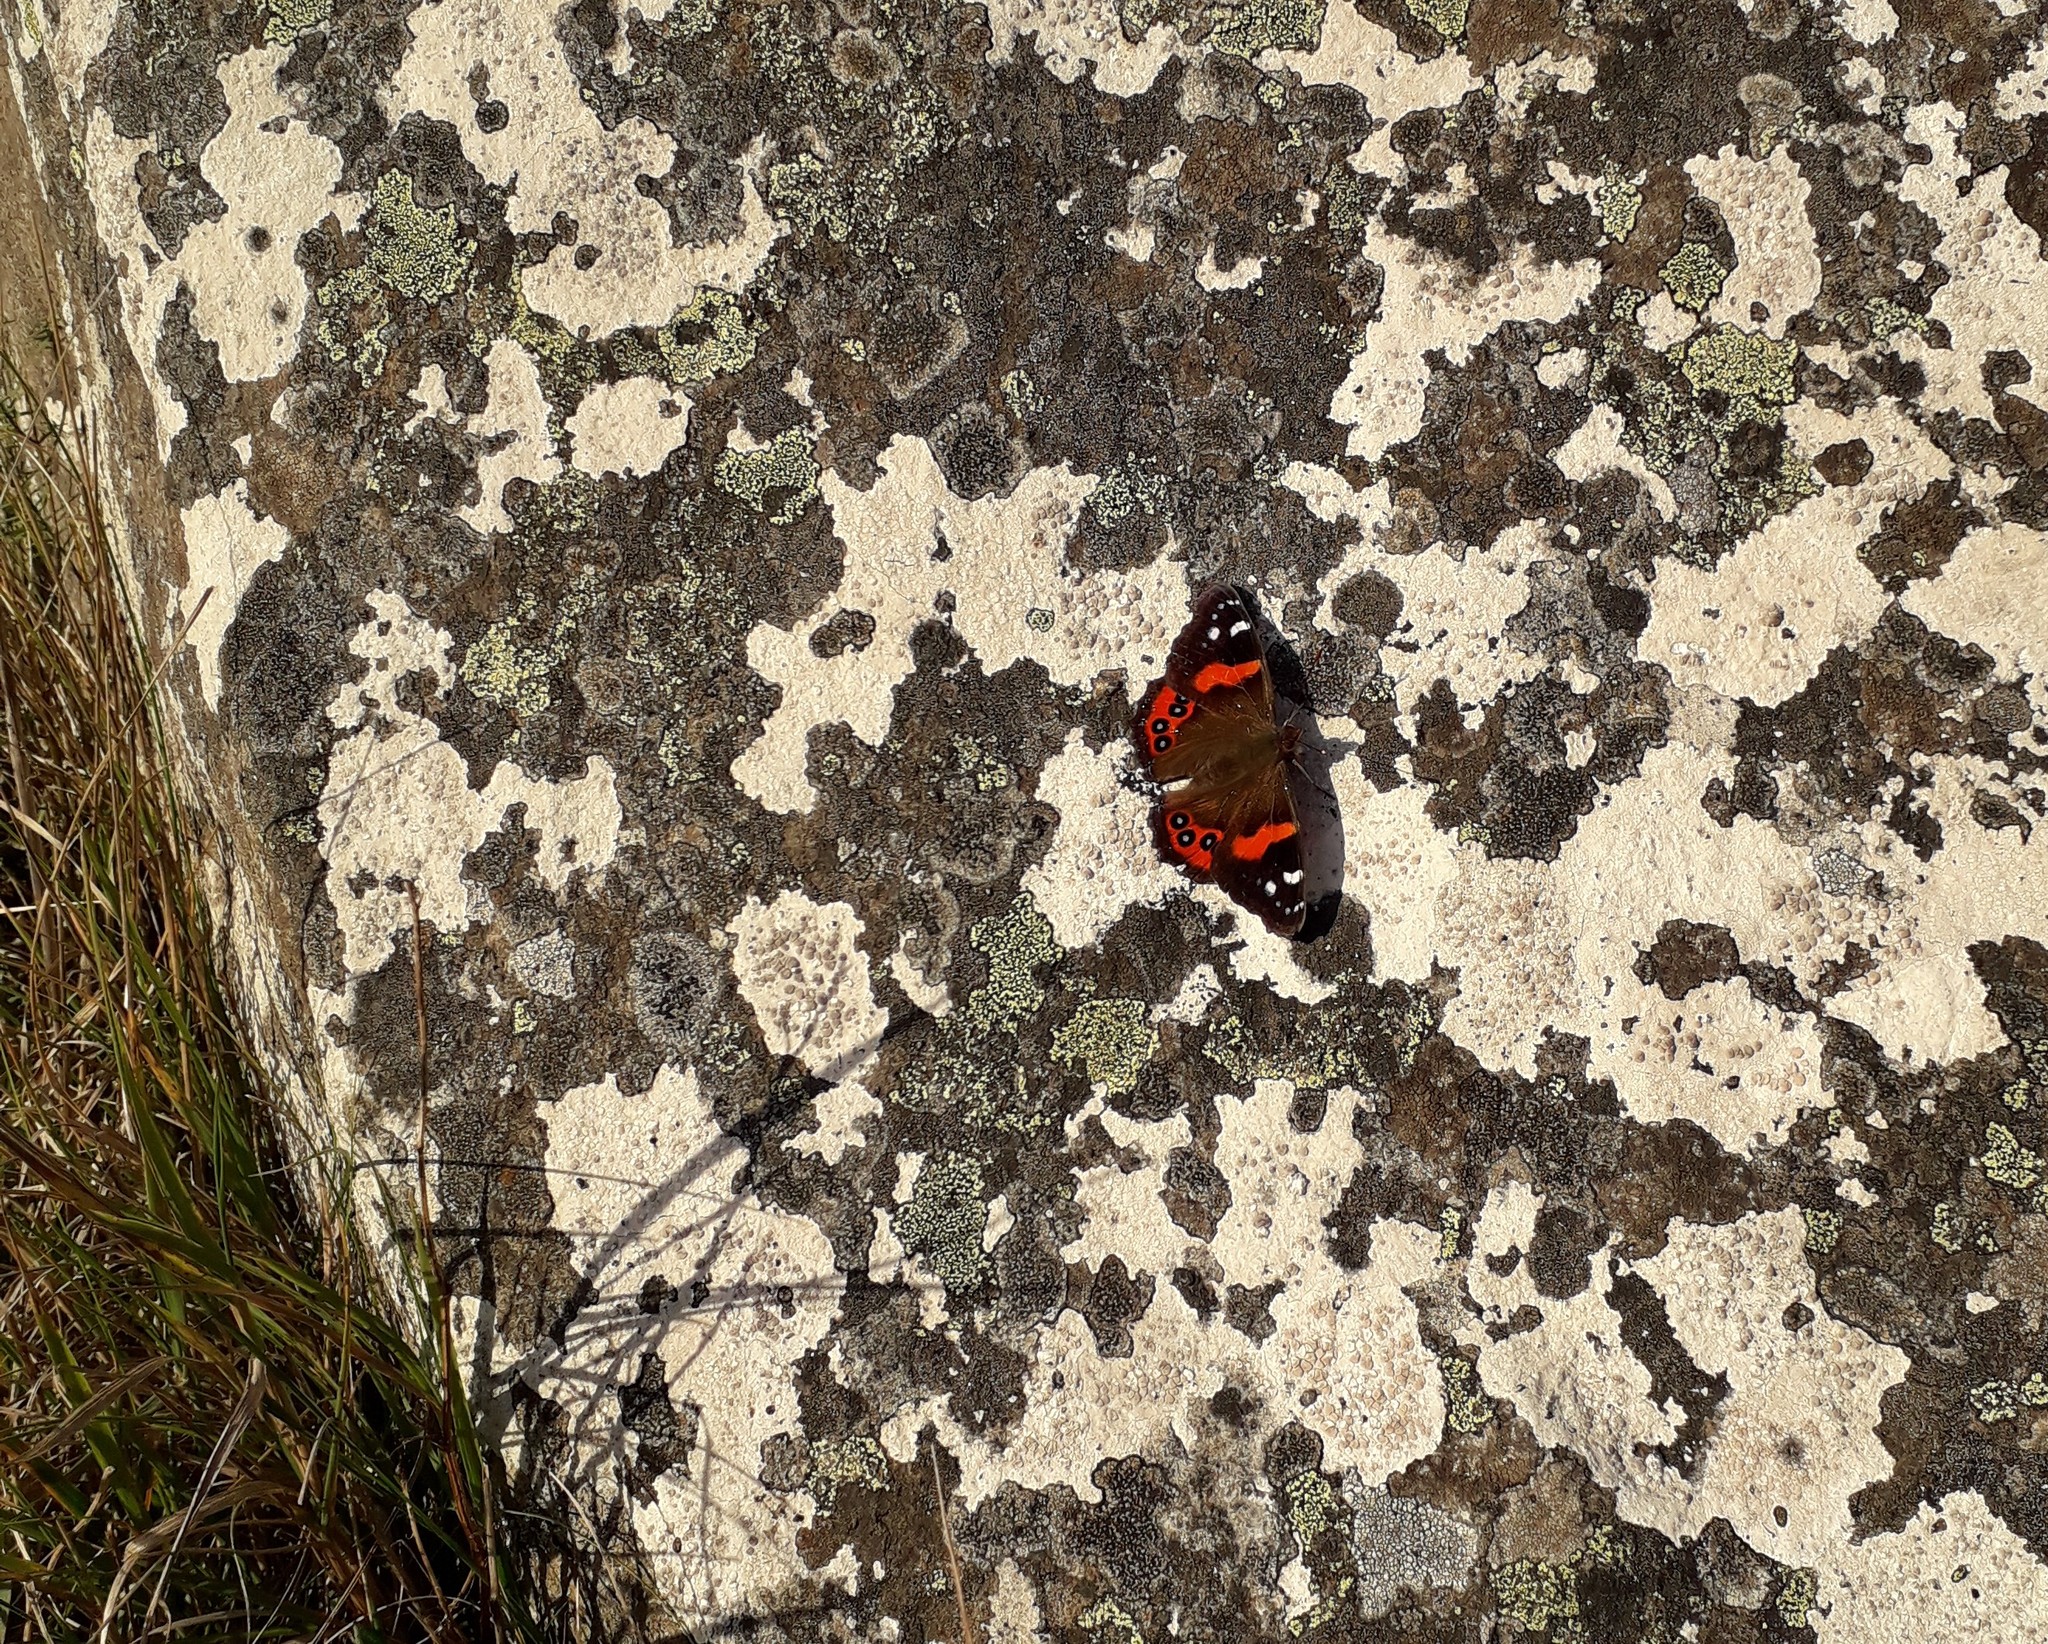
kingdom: Animalia
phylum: Arthropoda
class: Insecta
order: Lepidoptera
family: Nymphalidae
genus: Vanessa
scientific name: Vanessa gonerilla
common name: New zealand red admiral
